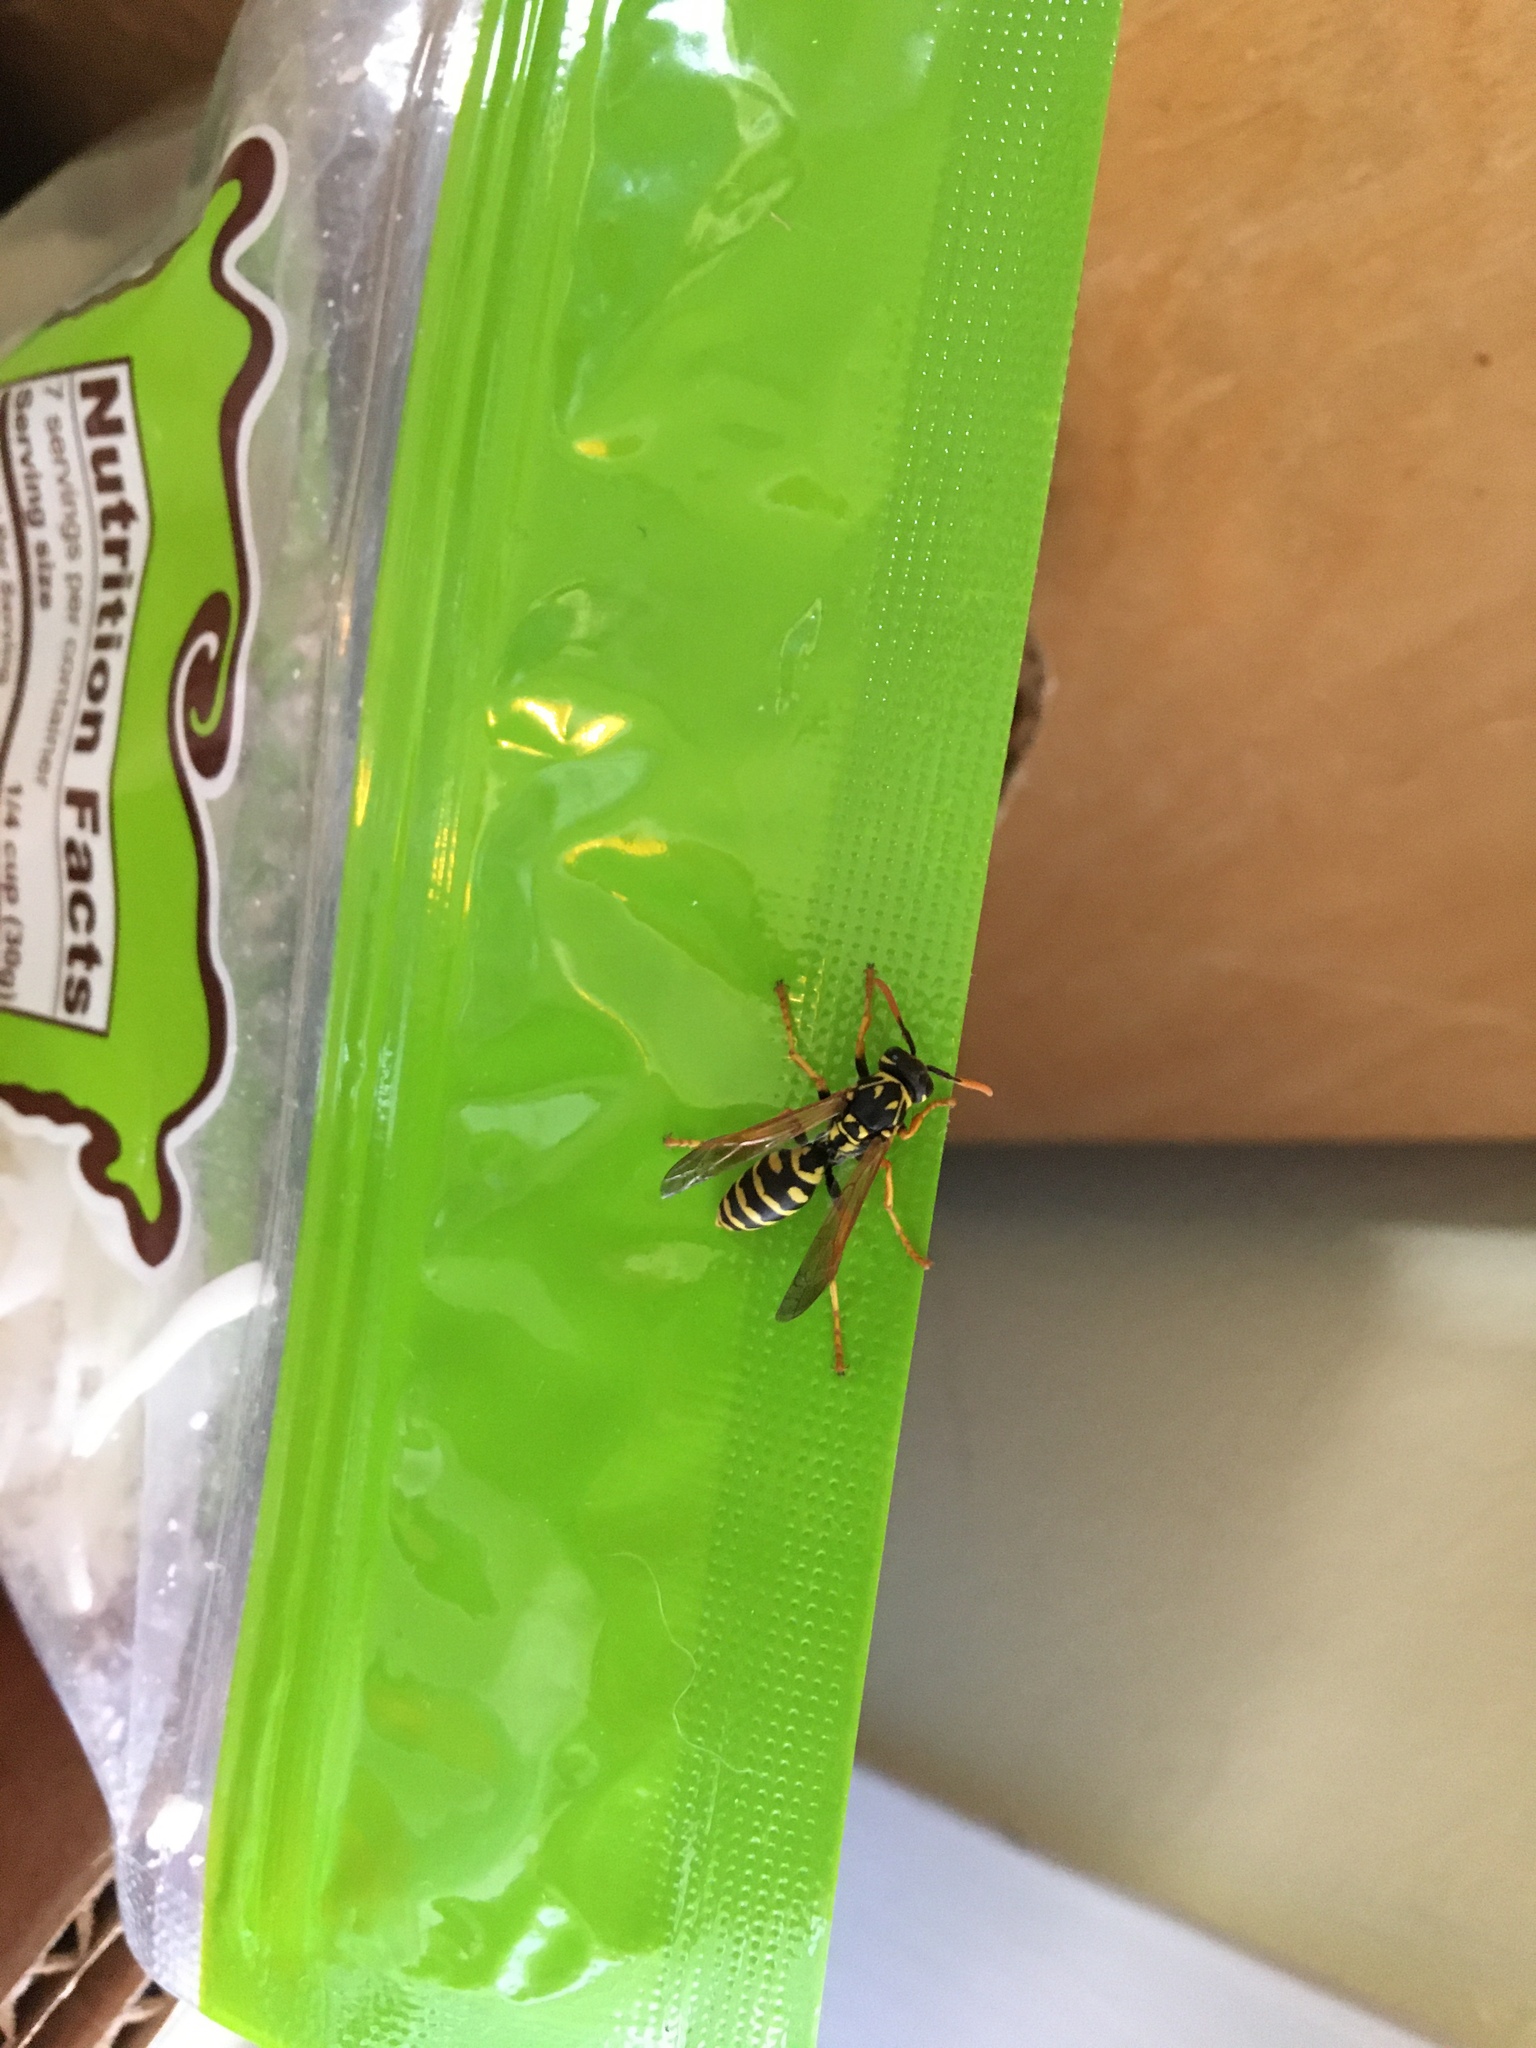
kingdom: Animalia
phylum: Arthropoda
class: Insecta
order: Hymenoptera
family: Eumenidae
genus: Polistes
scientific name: Polistes dominula
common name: Paper wasp
